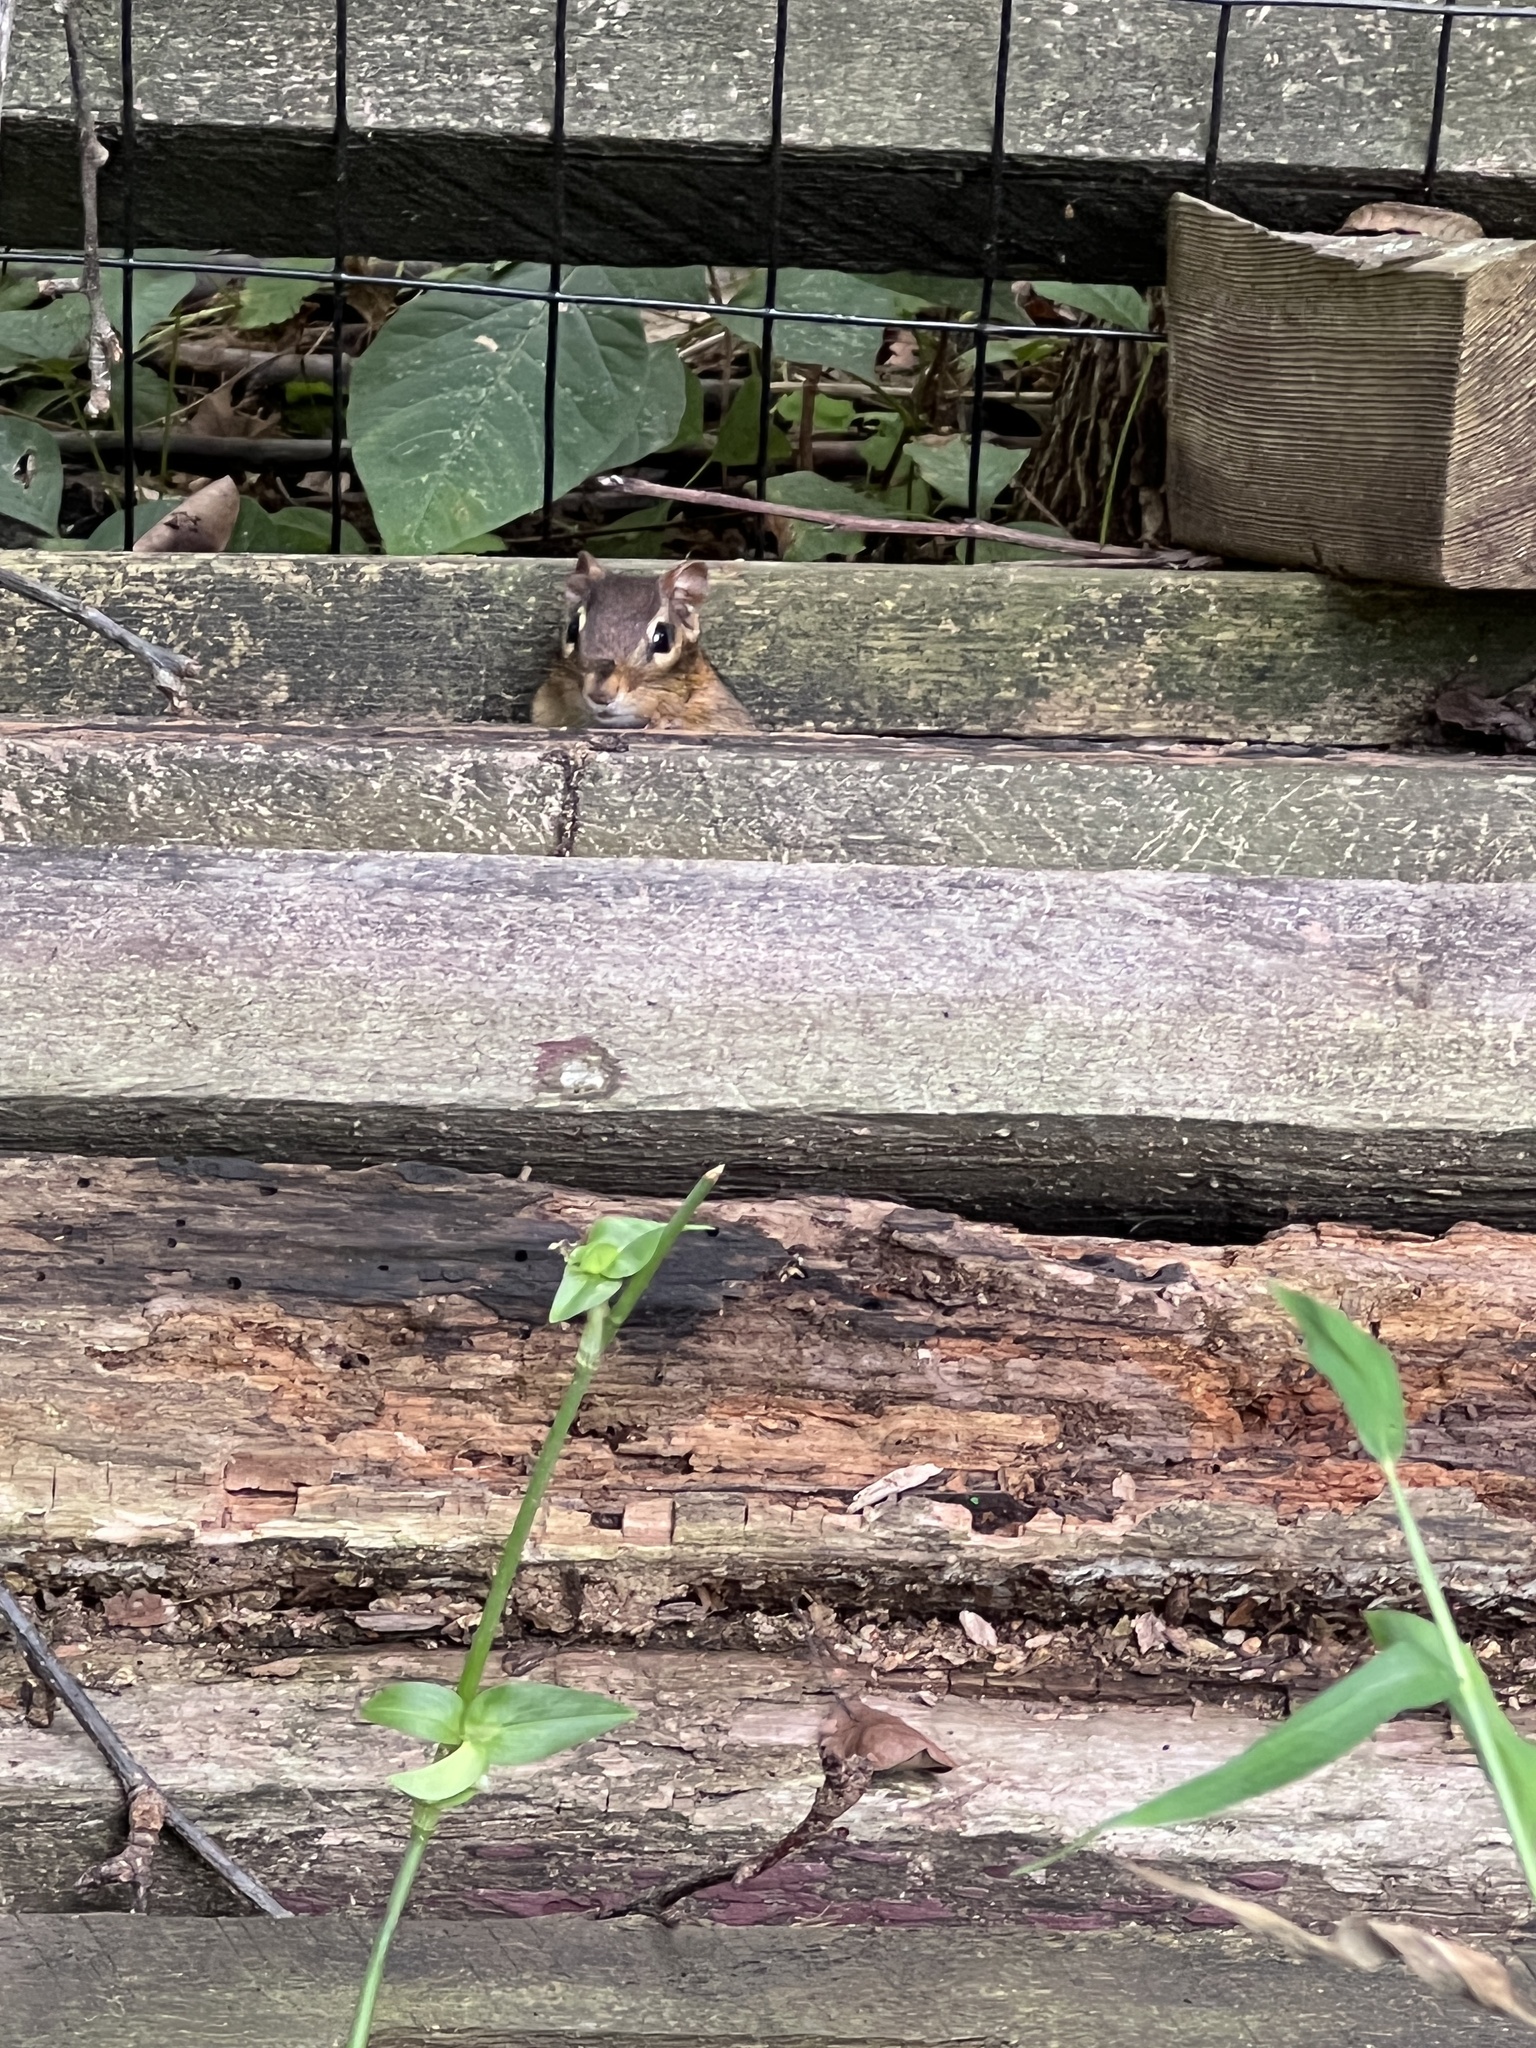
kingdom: Animalia
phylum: Chordata
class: Mammalia
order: Rodentia
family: Sciuridae
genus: Tamias
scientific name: Tamias striatus
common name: Eastern chipmunk
